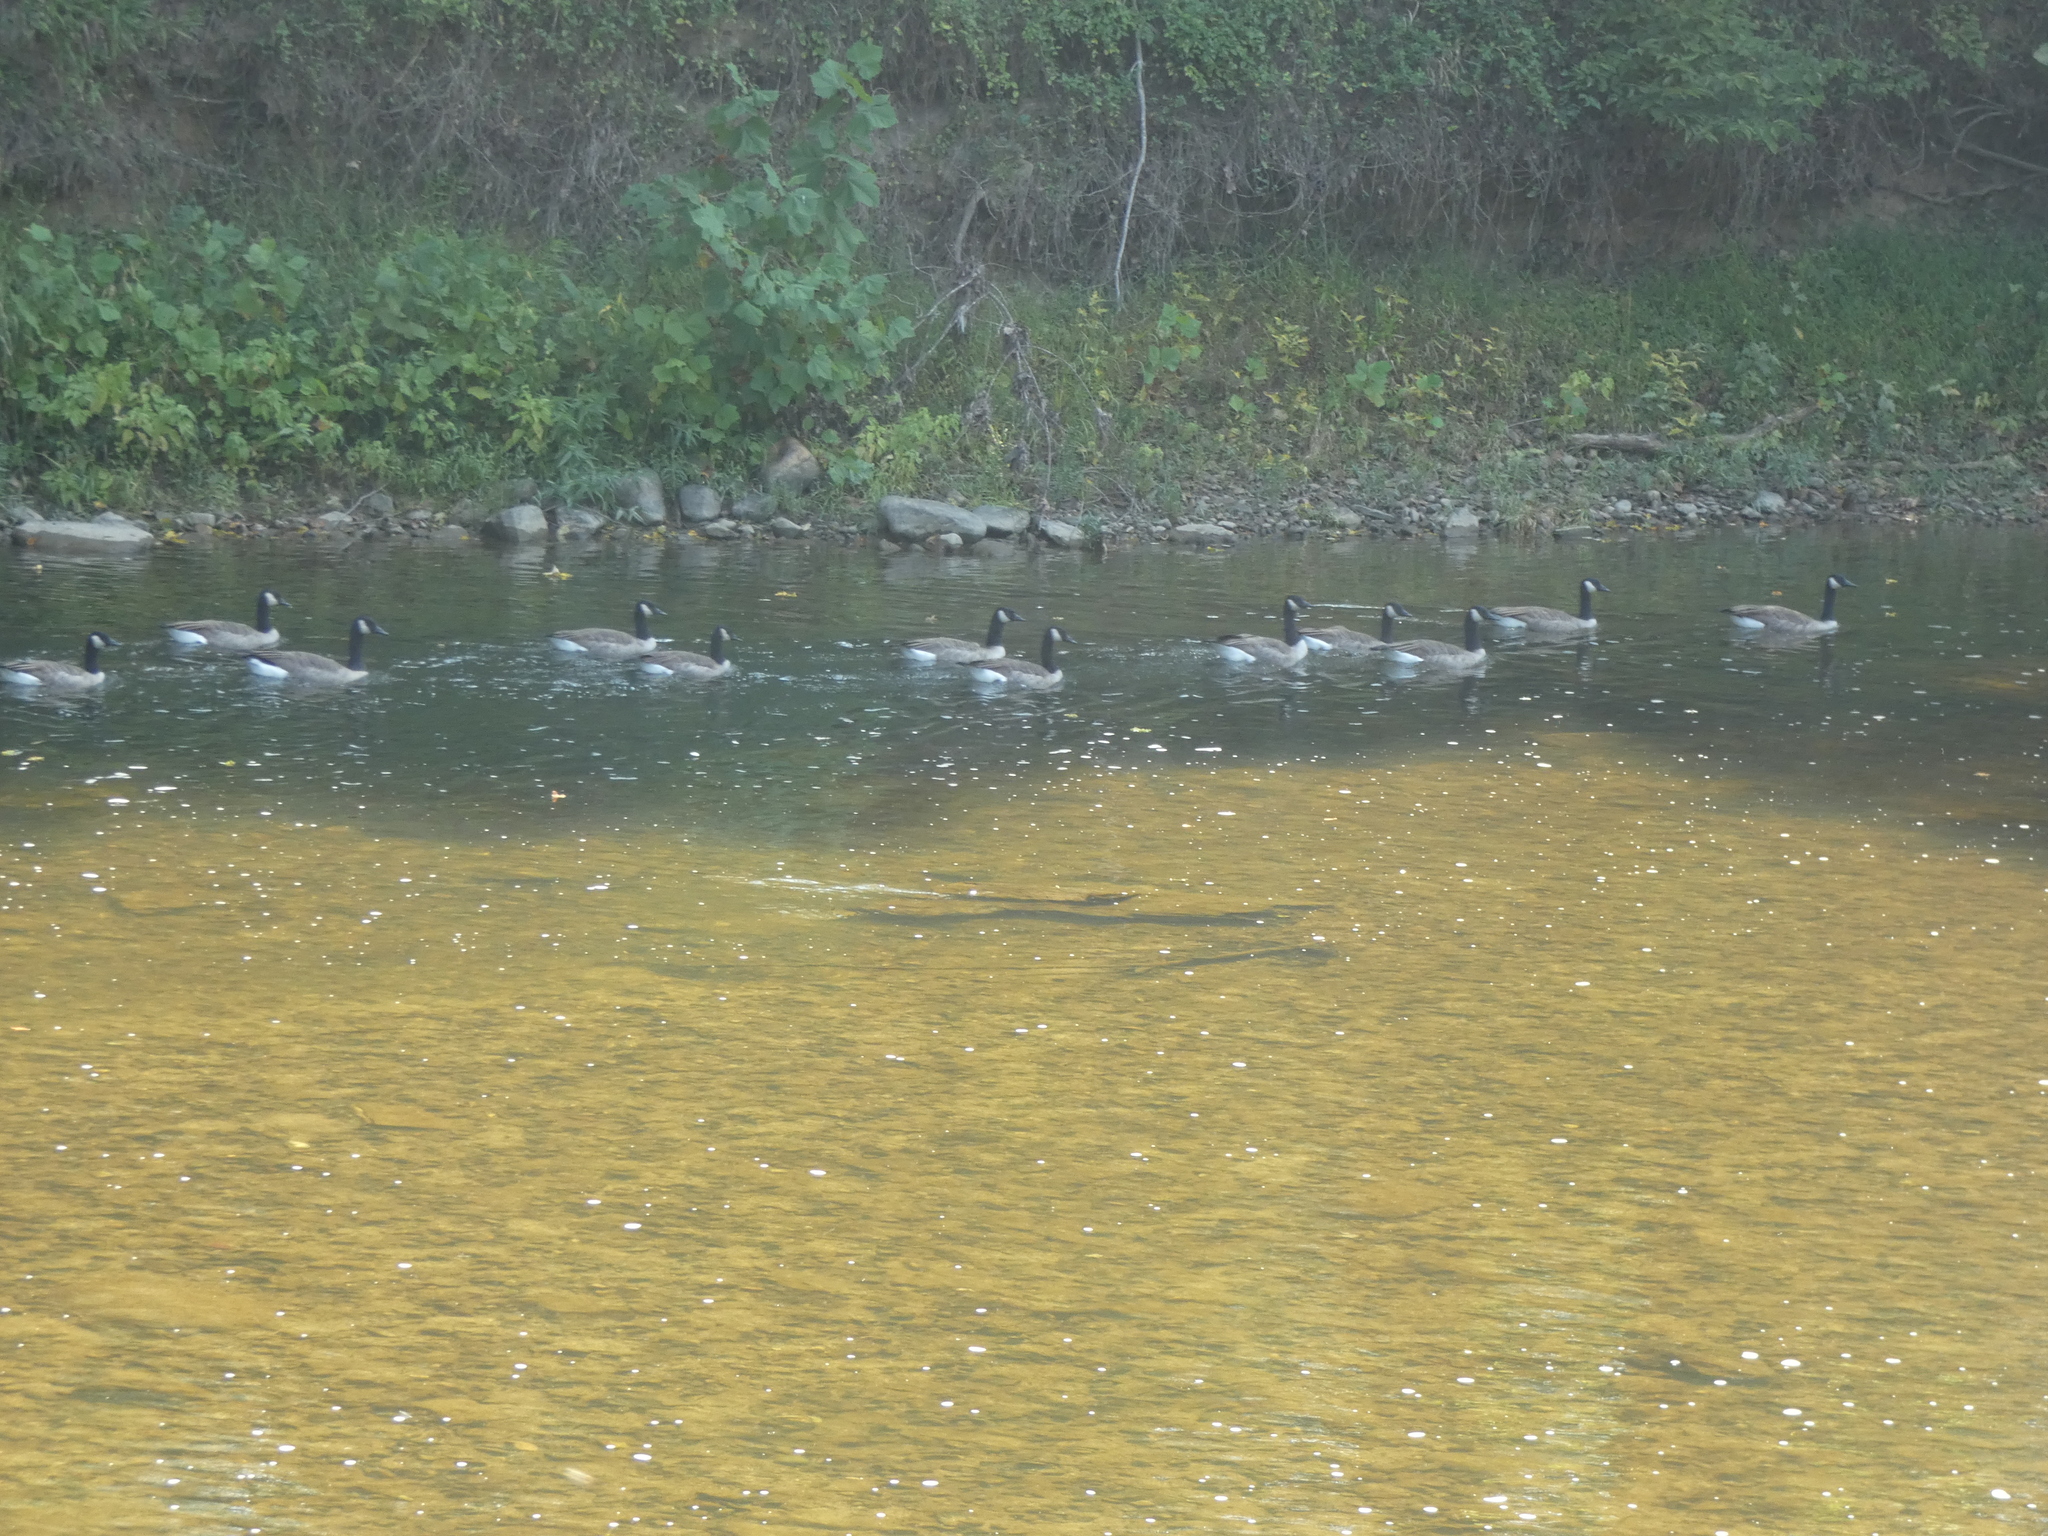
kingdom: Animalia
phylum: Chordata
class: Aves
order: Anseriformes
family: Anatidae
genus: Branta
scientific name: Branta canadensis
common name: Canada goose
